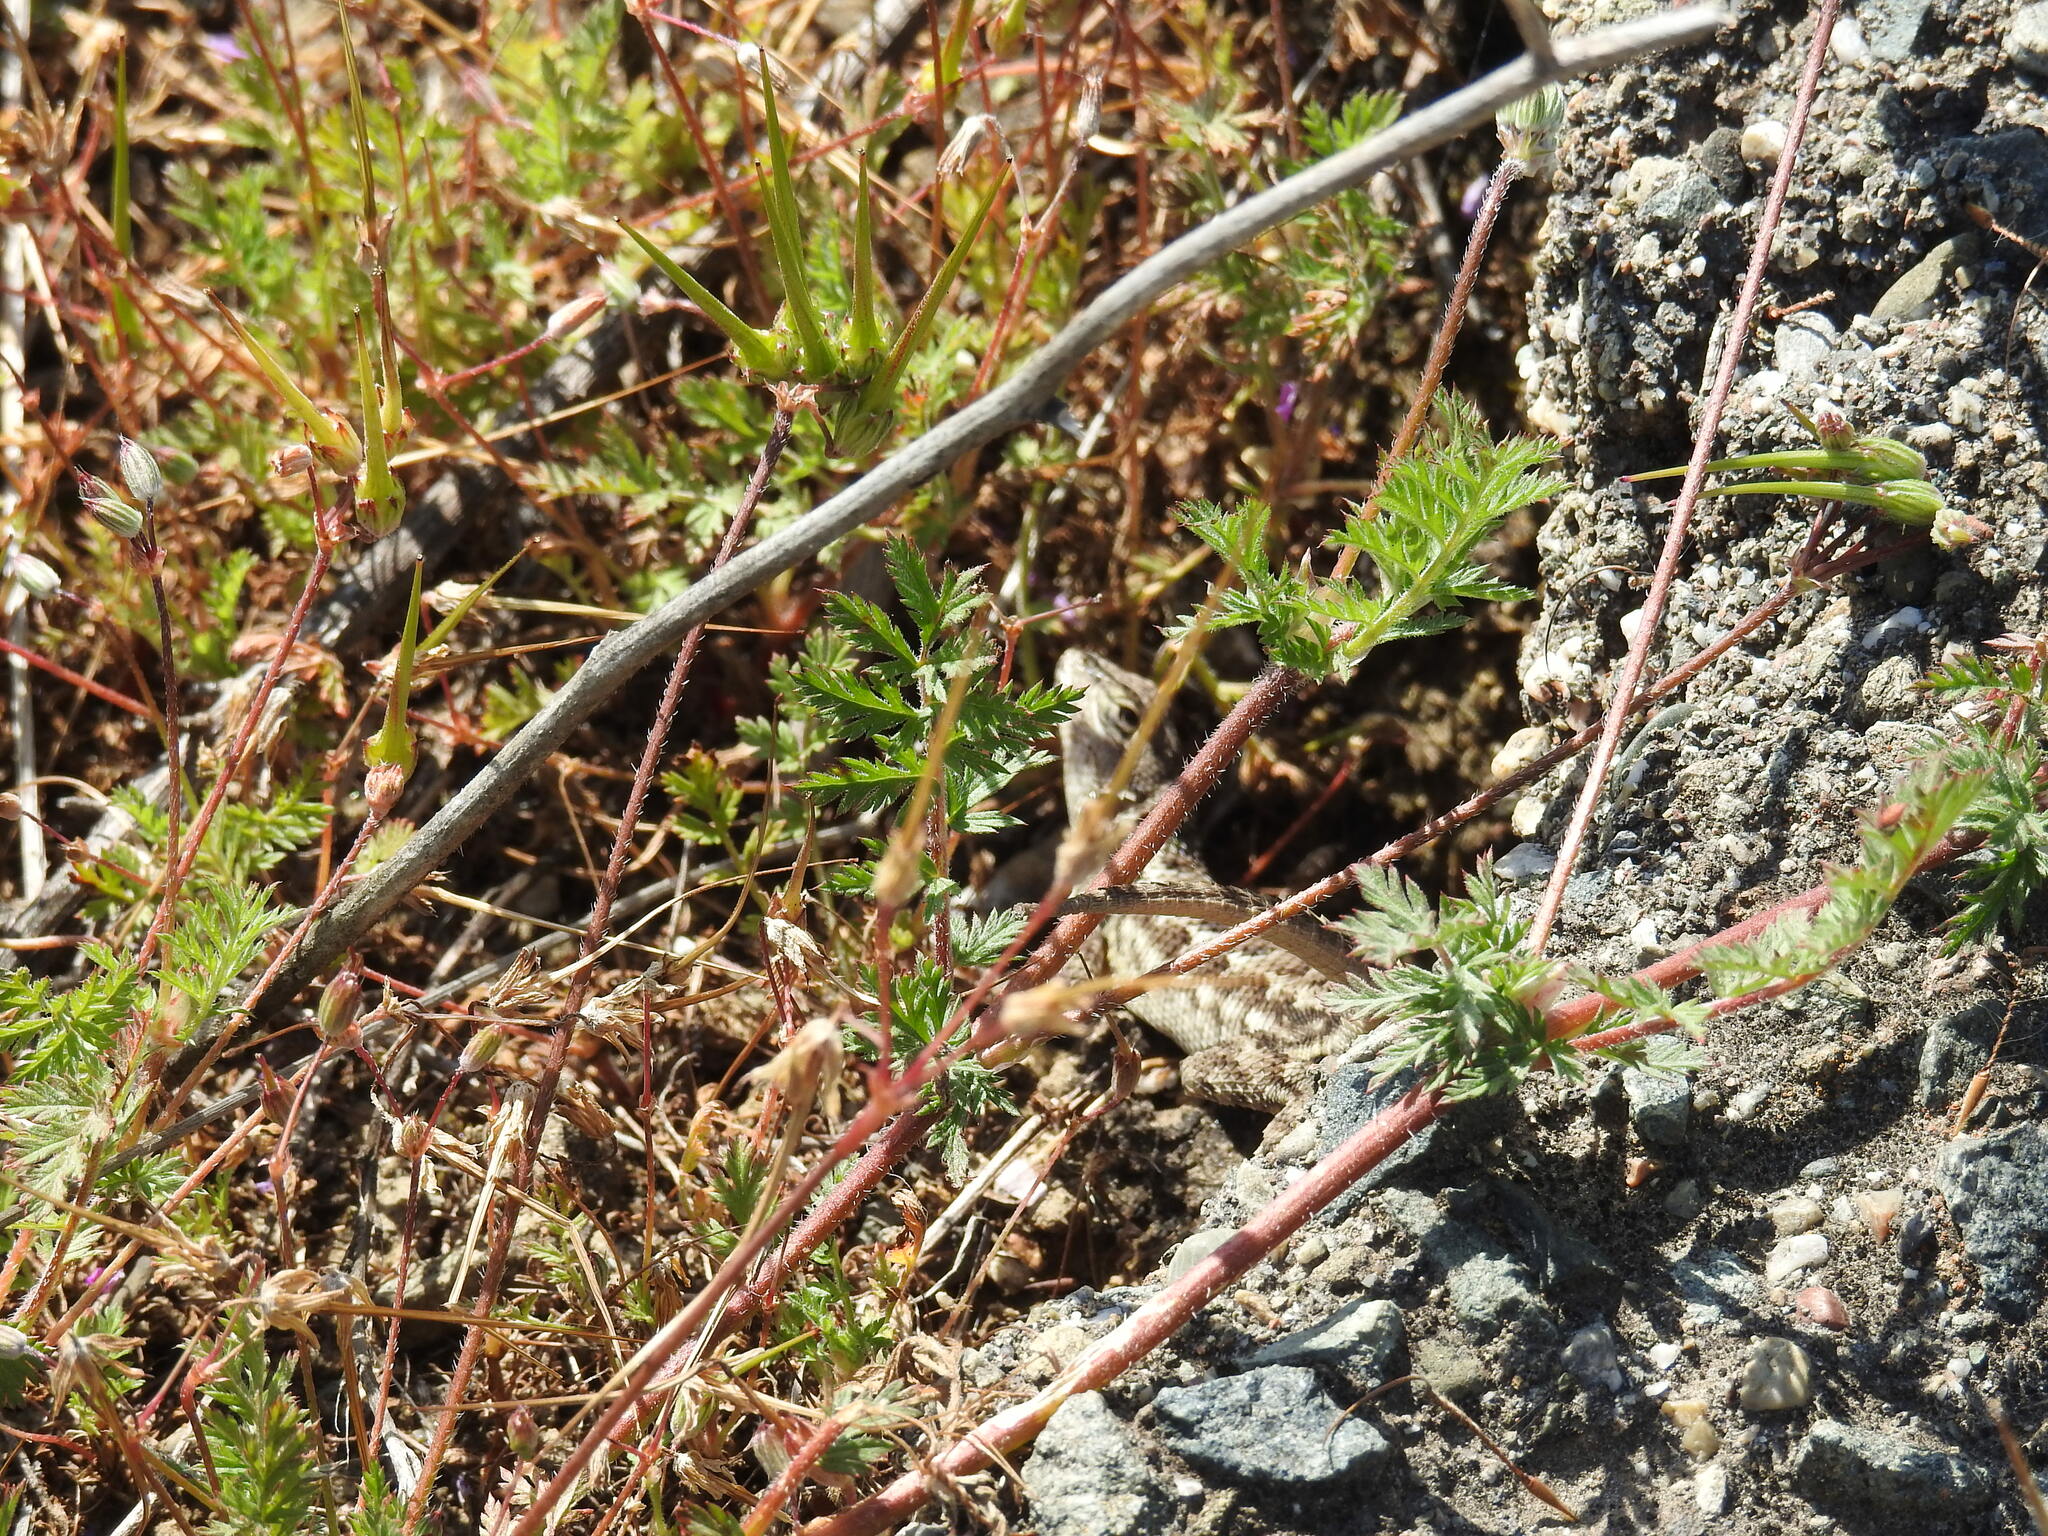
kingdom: Animalia
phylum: Chordata
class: Squamata
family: Phrynosomatidae
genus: Sceloporus
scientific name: Sceloporus occidentalis
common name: Western fence lizard
